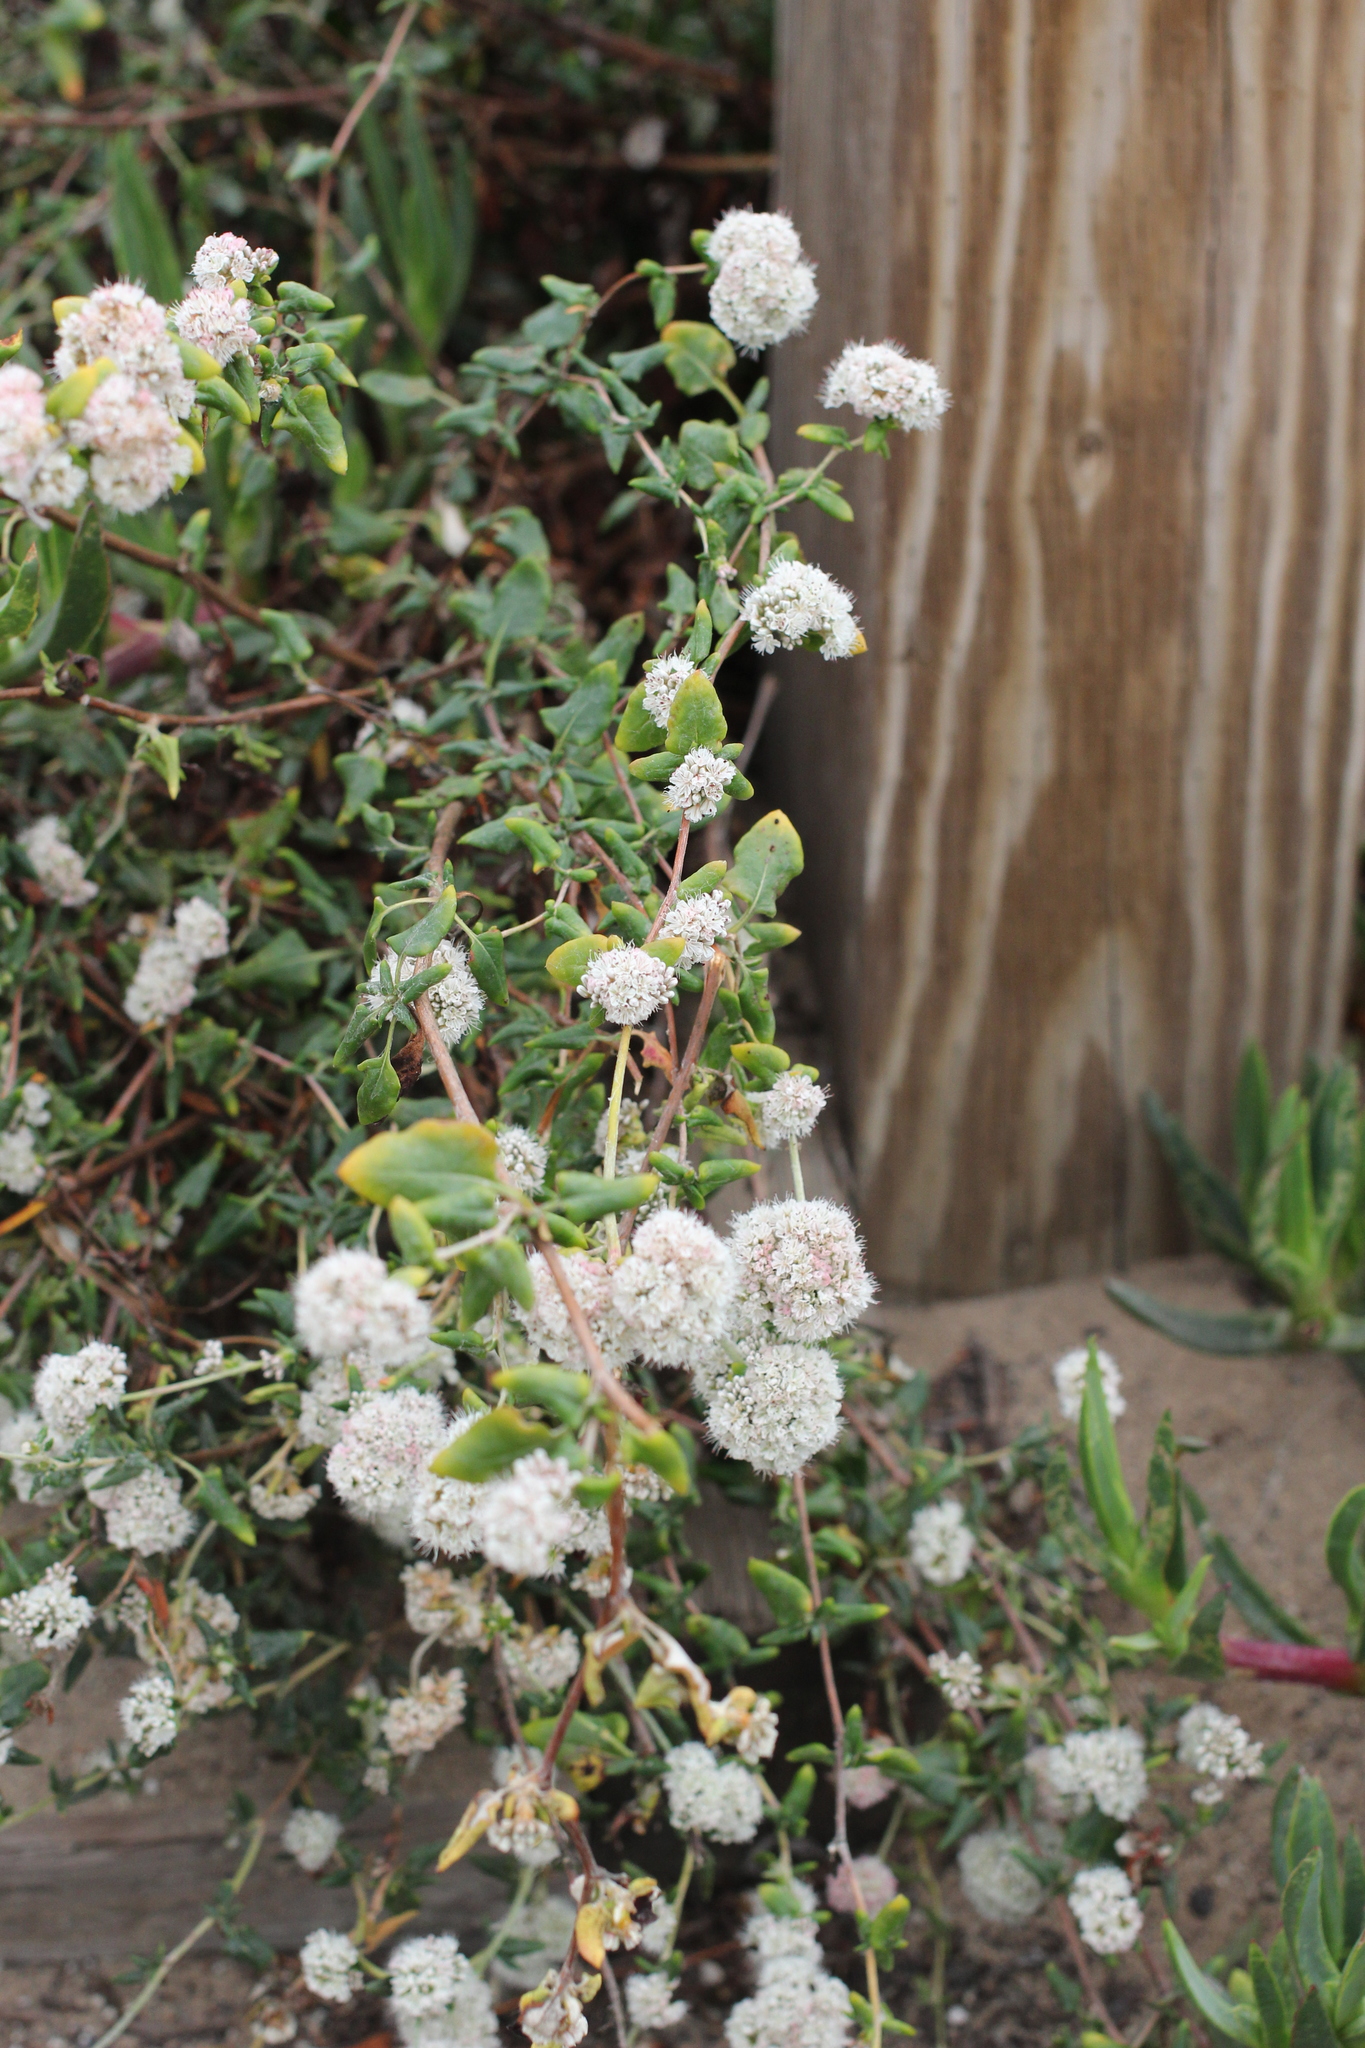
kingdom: Plantae
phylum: Tracheophyta
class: Magnoliopsida
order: Caryophyllales
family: Polygonaceae
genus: Eriogonum
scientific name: Eriogonum parvifolium
